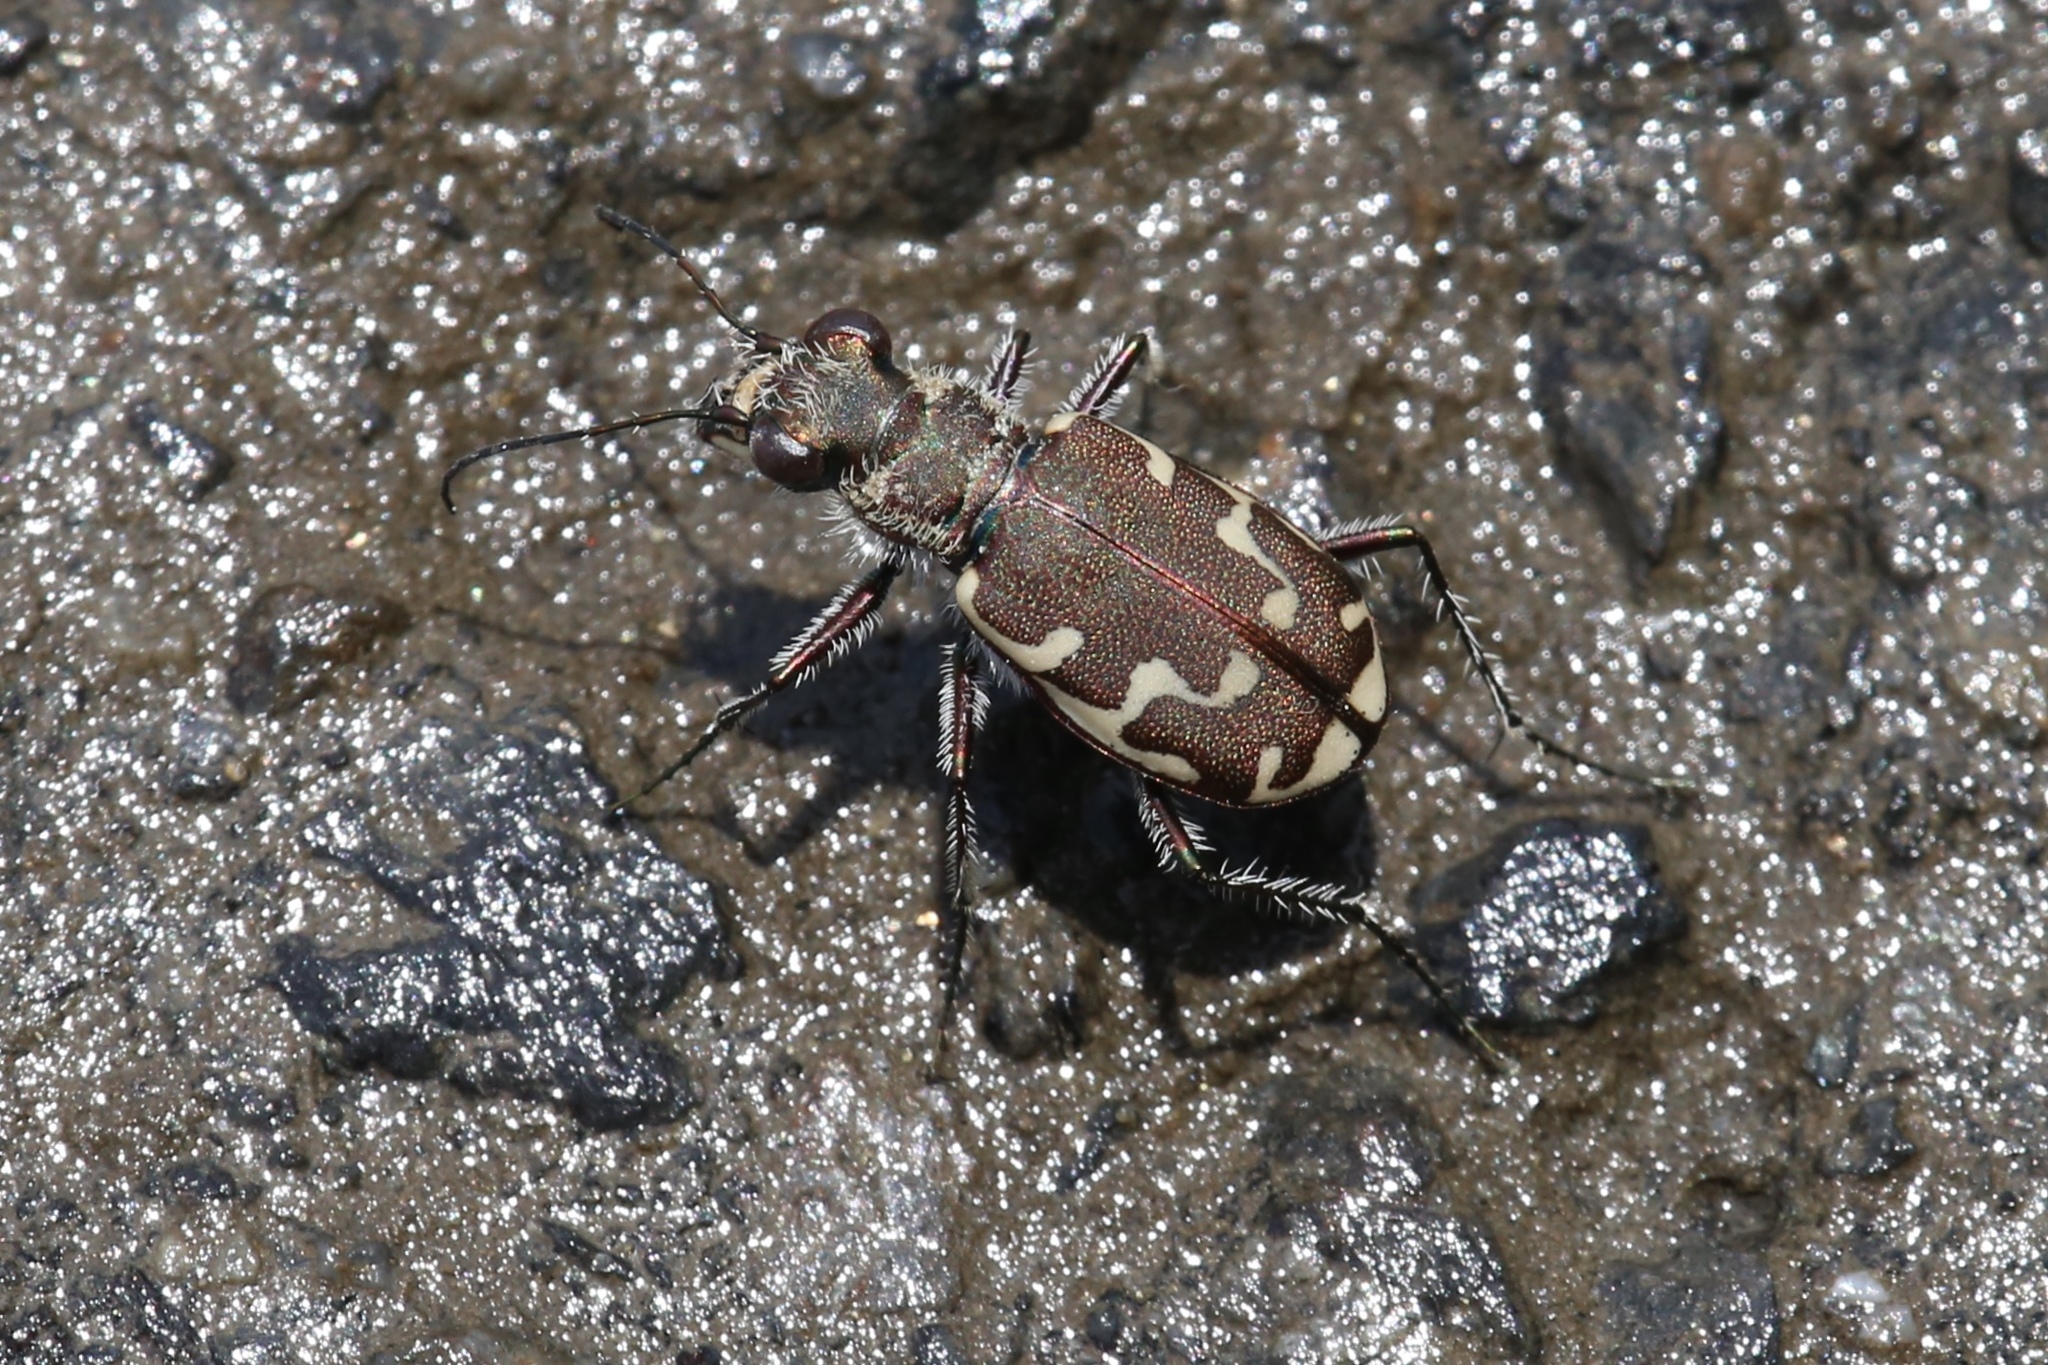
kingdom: Animalia
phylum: Arthropoda
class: Insecta
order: Coleoptera
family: Carabidae
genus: Cicindela
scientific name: Cicindela repanda
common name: Bronzed tiger beetle
